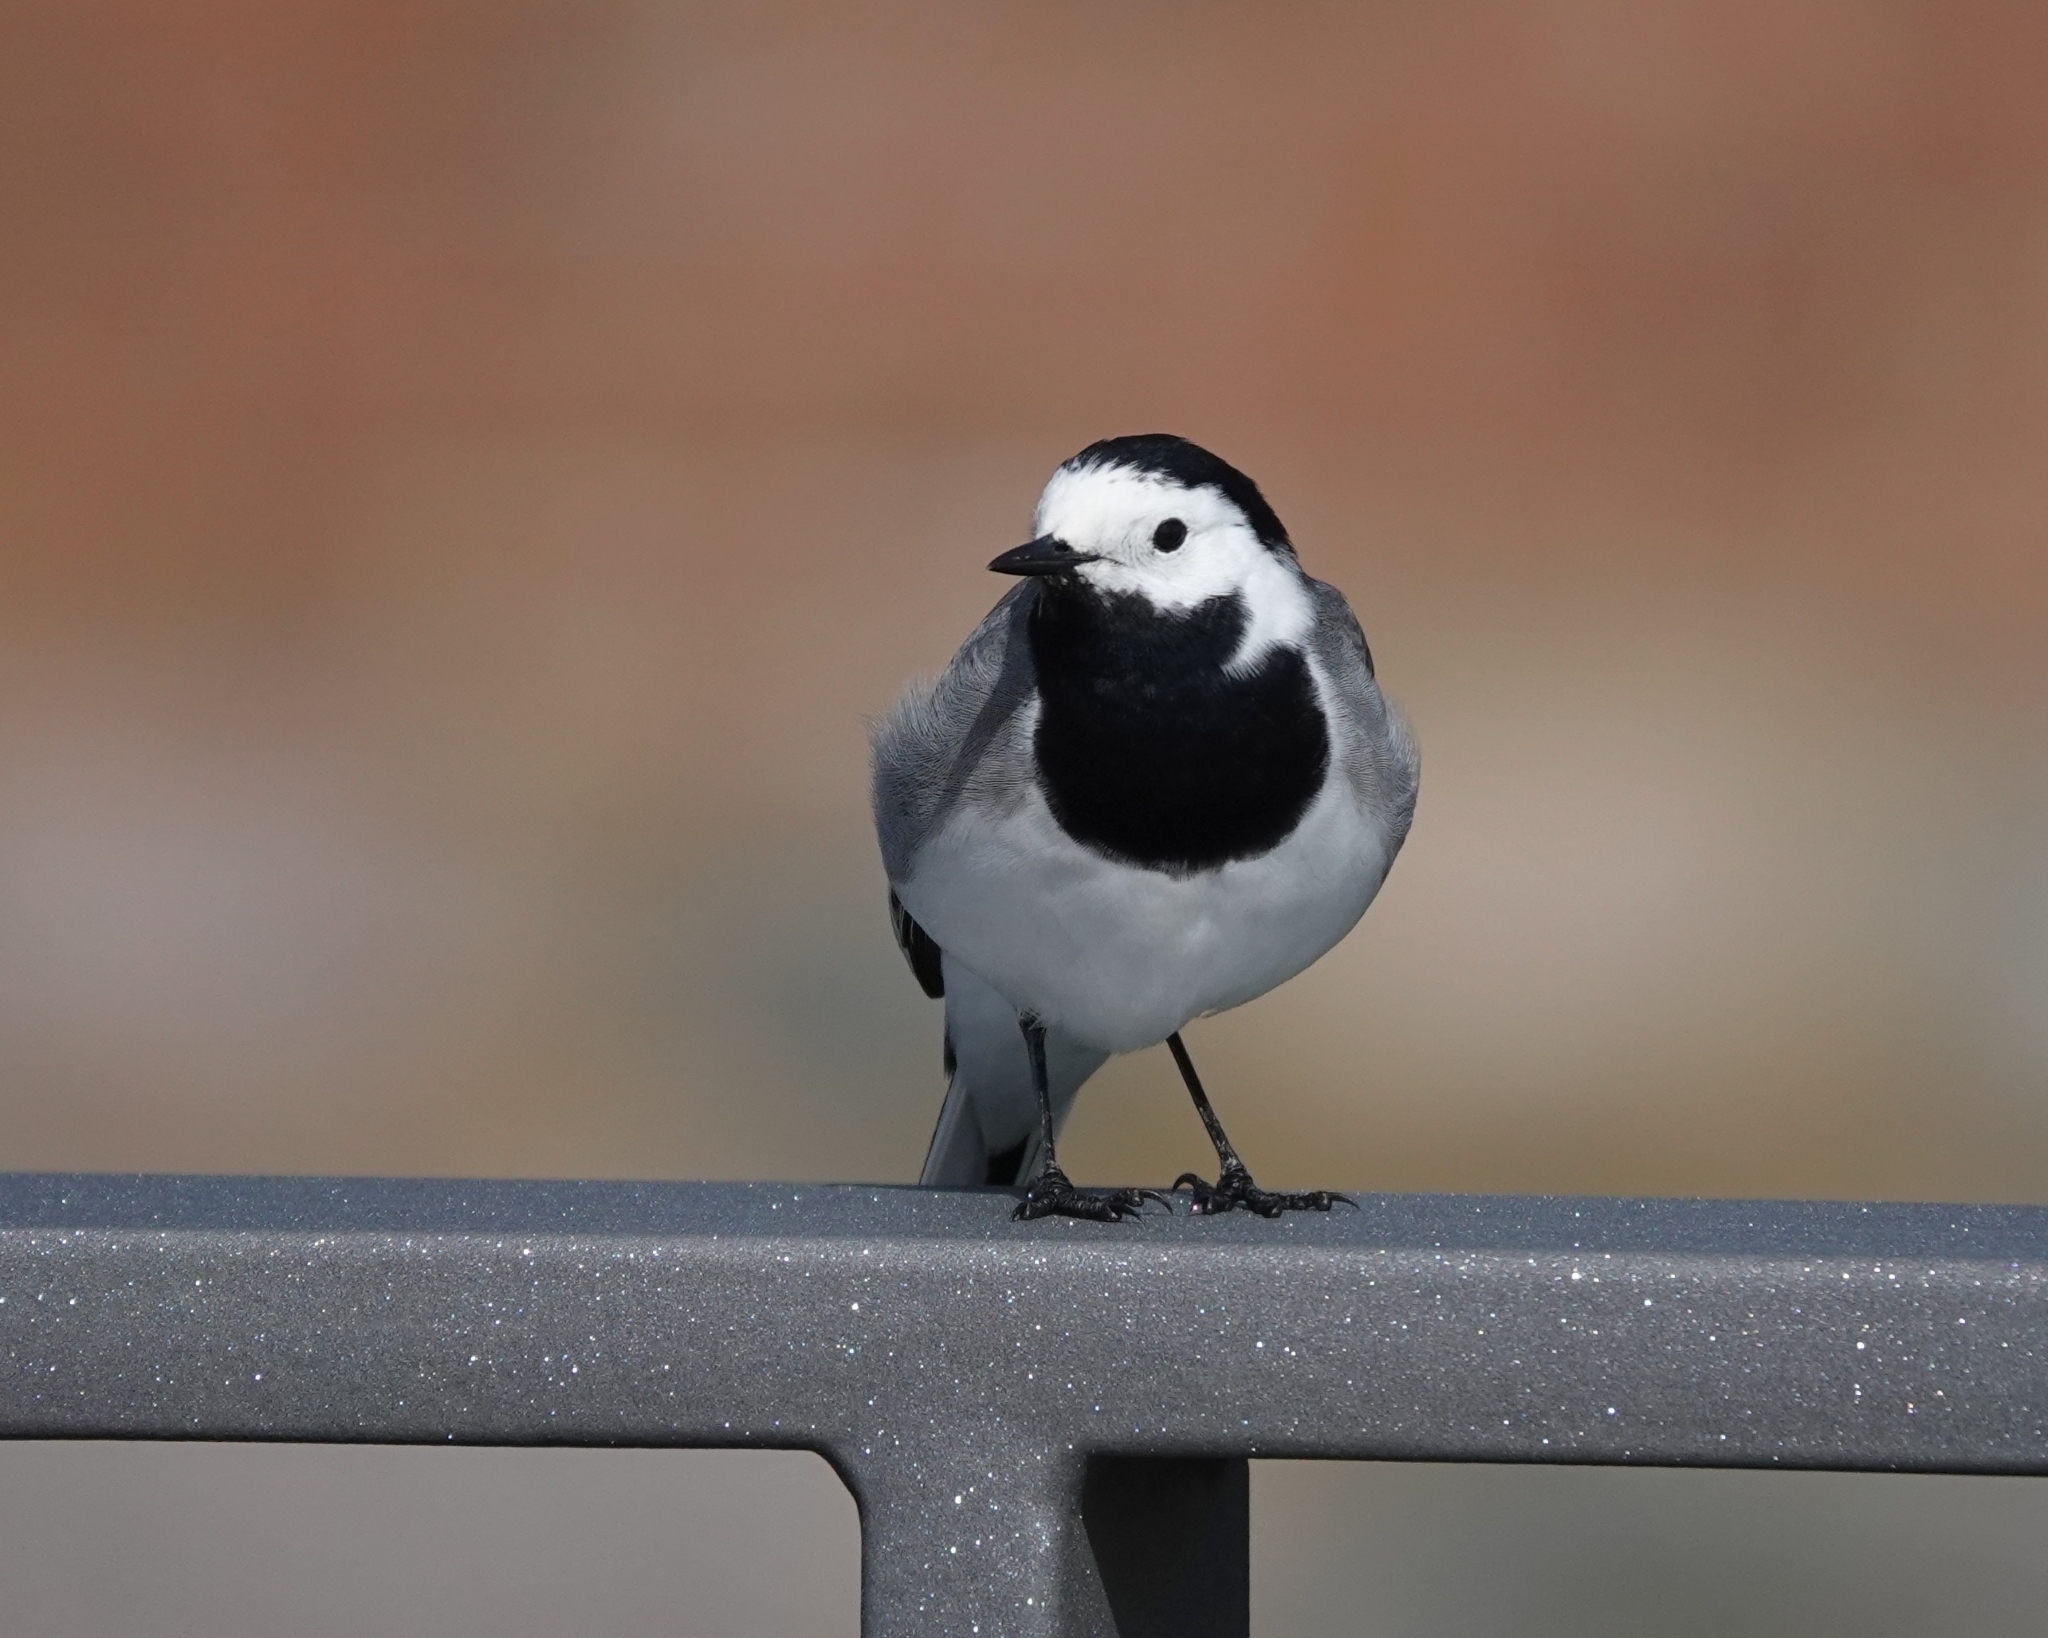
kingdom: Animalia
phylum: Chordata
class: Aves
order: Passeriformes
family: Motacillidae
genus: Motacilla
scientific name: Motacilla alba
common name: White wagtail
